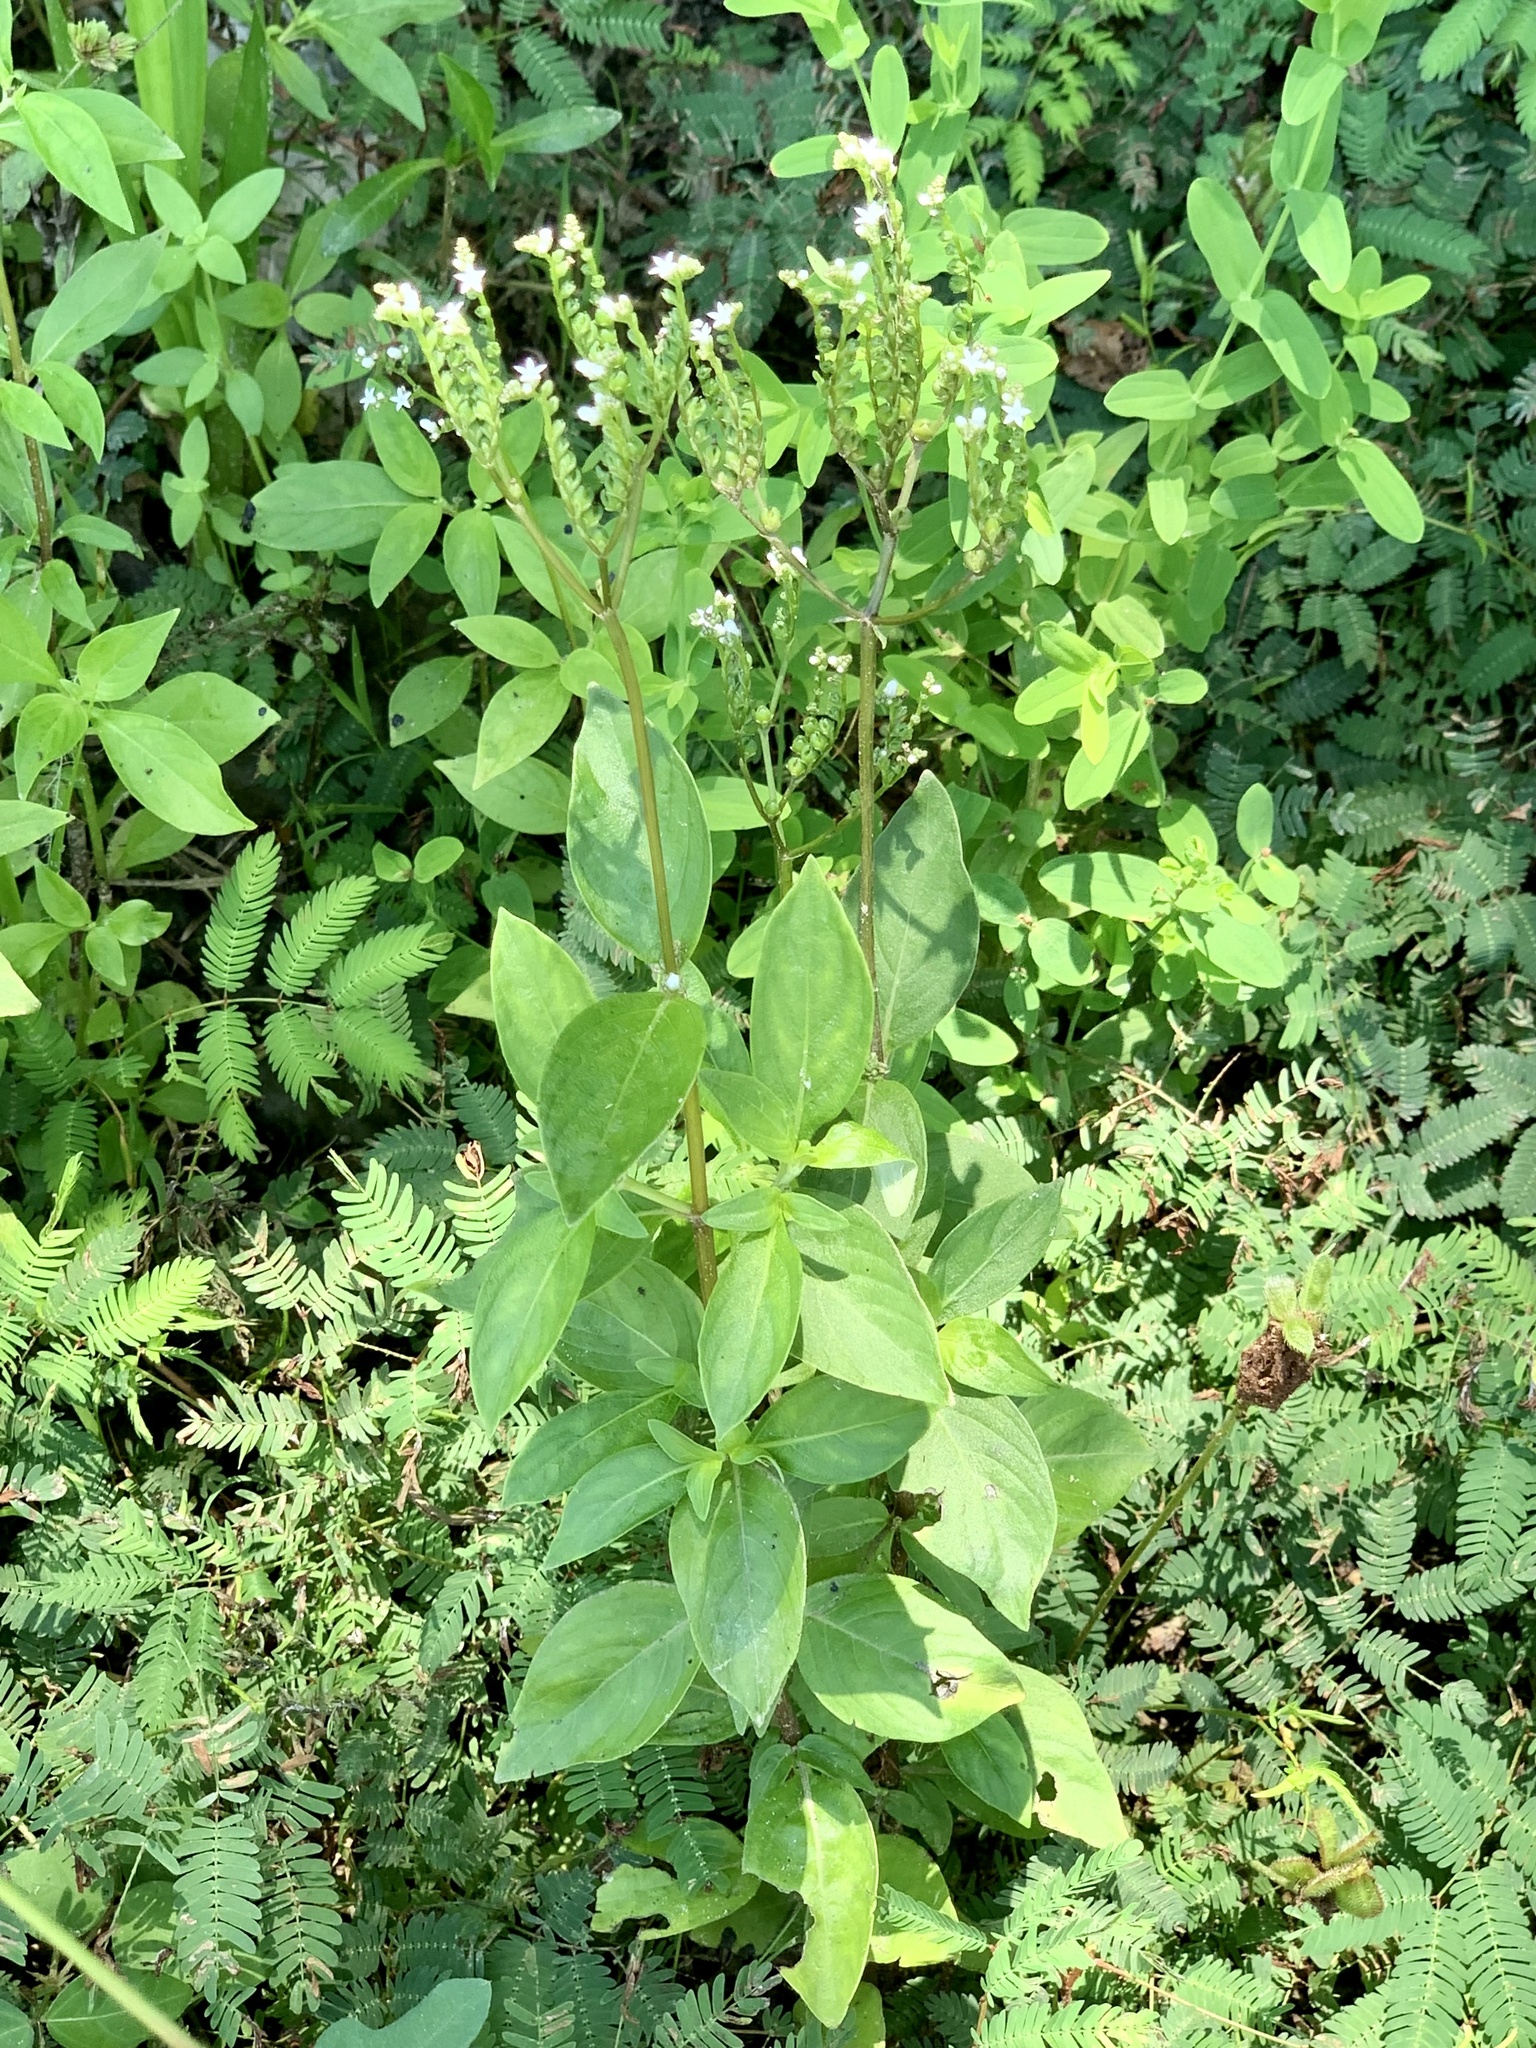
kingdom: Plantae
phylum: Tracheophyta
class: Magnoliopsida
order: Gentianales
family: Loganiaceae
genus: Mitreola
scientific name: Mitreola petiolata
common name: Lax hornpod
